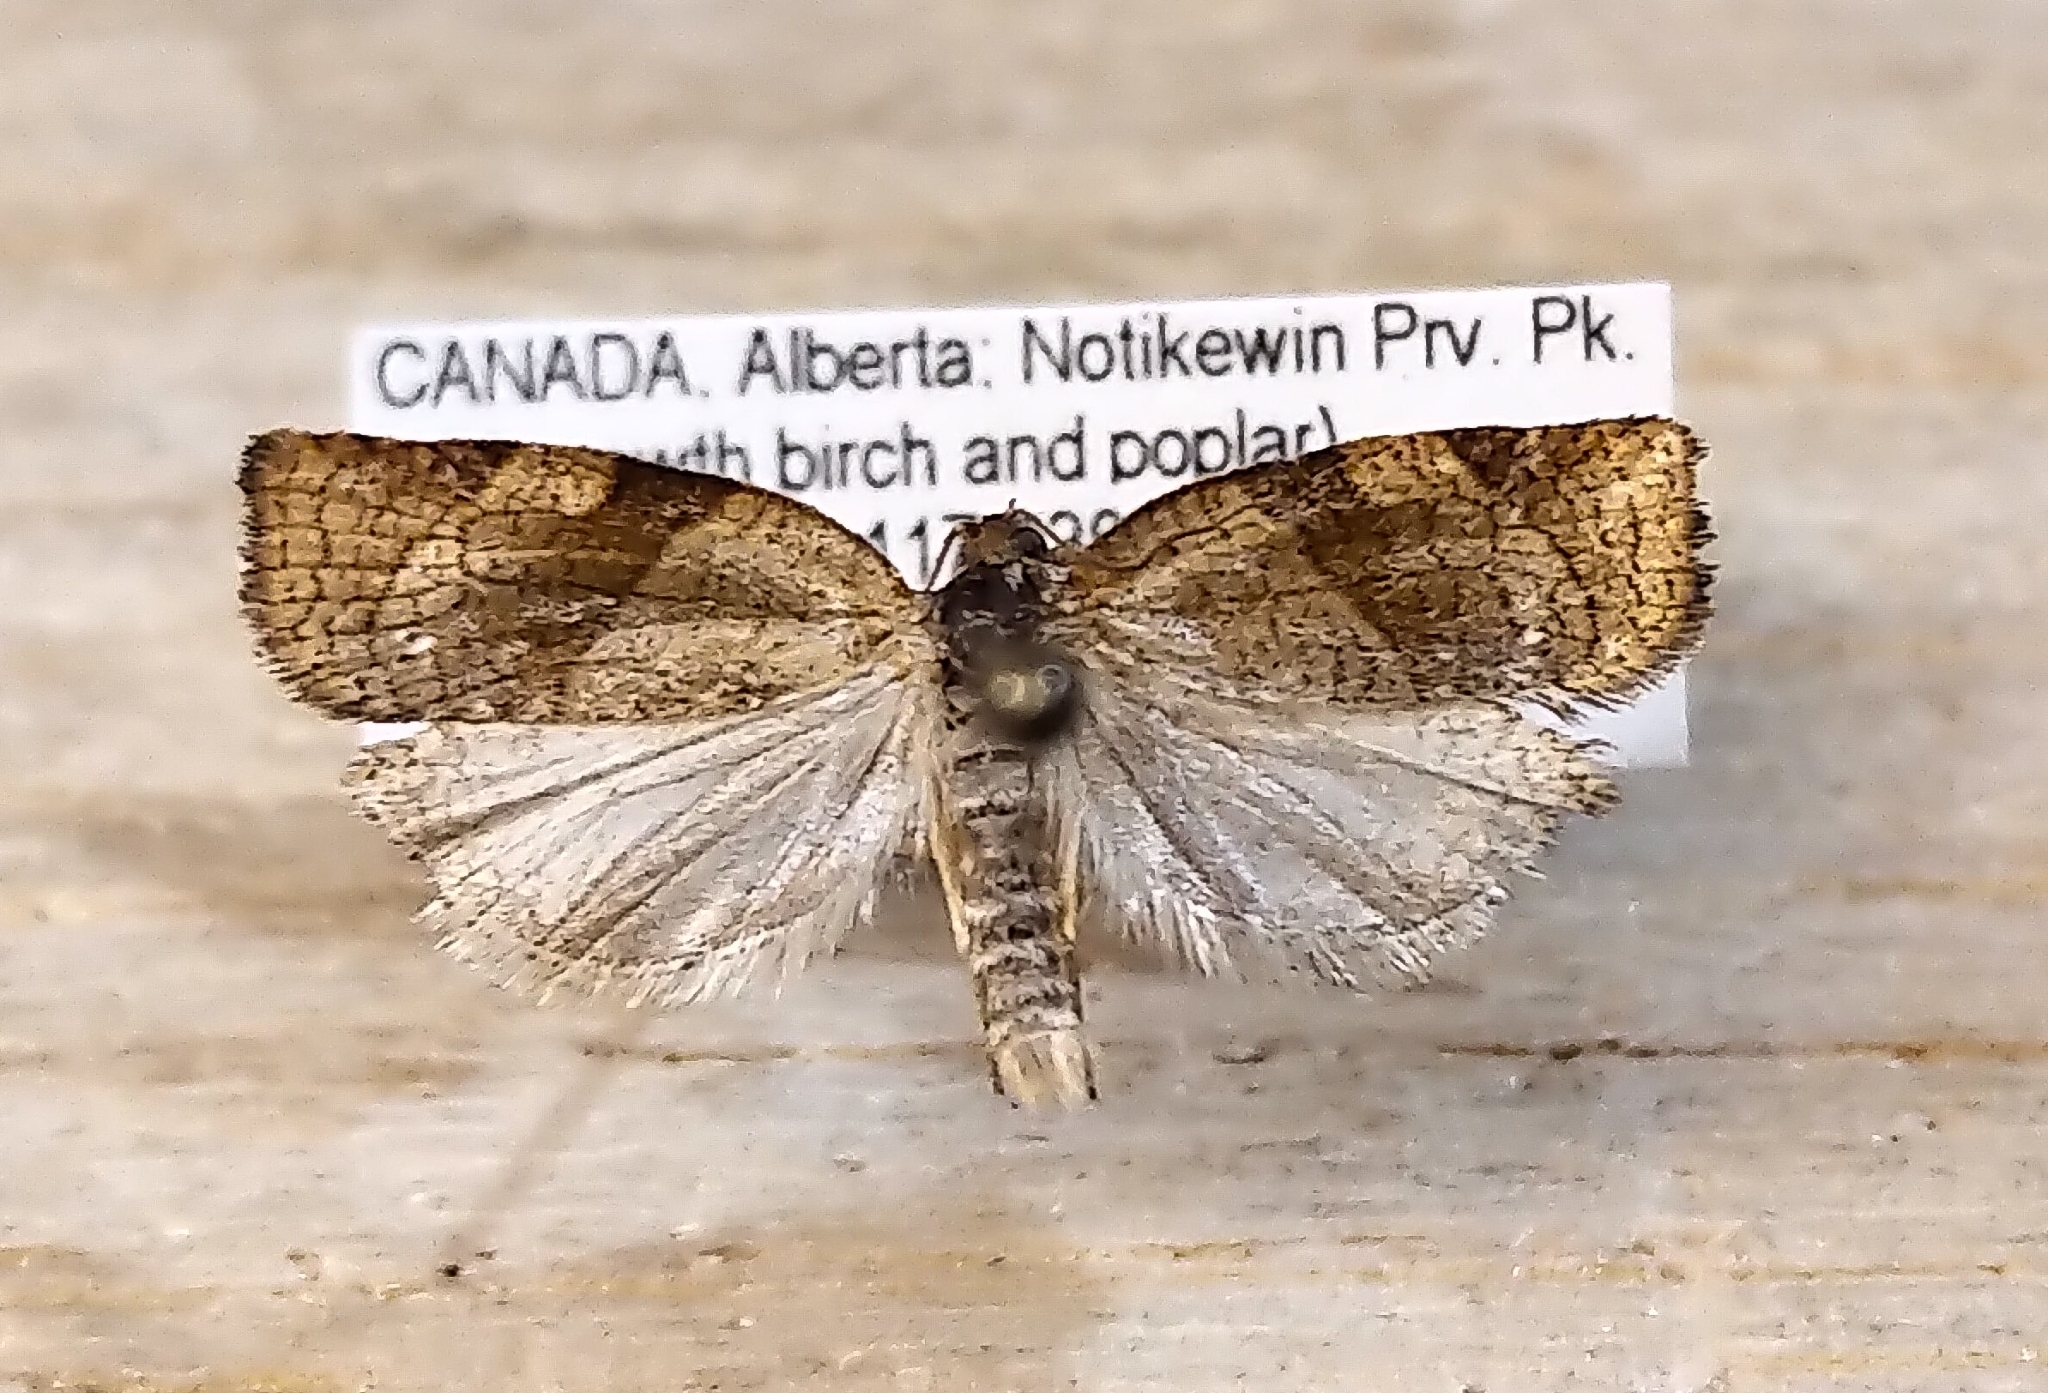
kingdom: Animalia
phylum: Arthropoda
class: Insecta
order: Lepidoptera
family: Tortricidae
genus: Choristoneura
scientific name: Choristoneura albaniana
